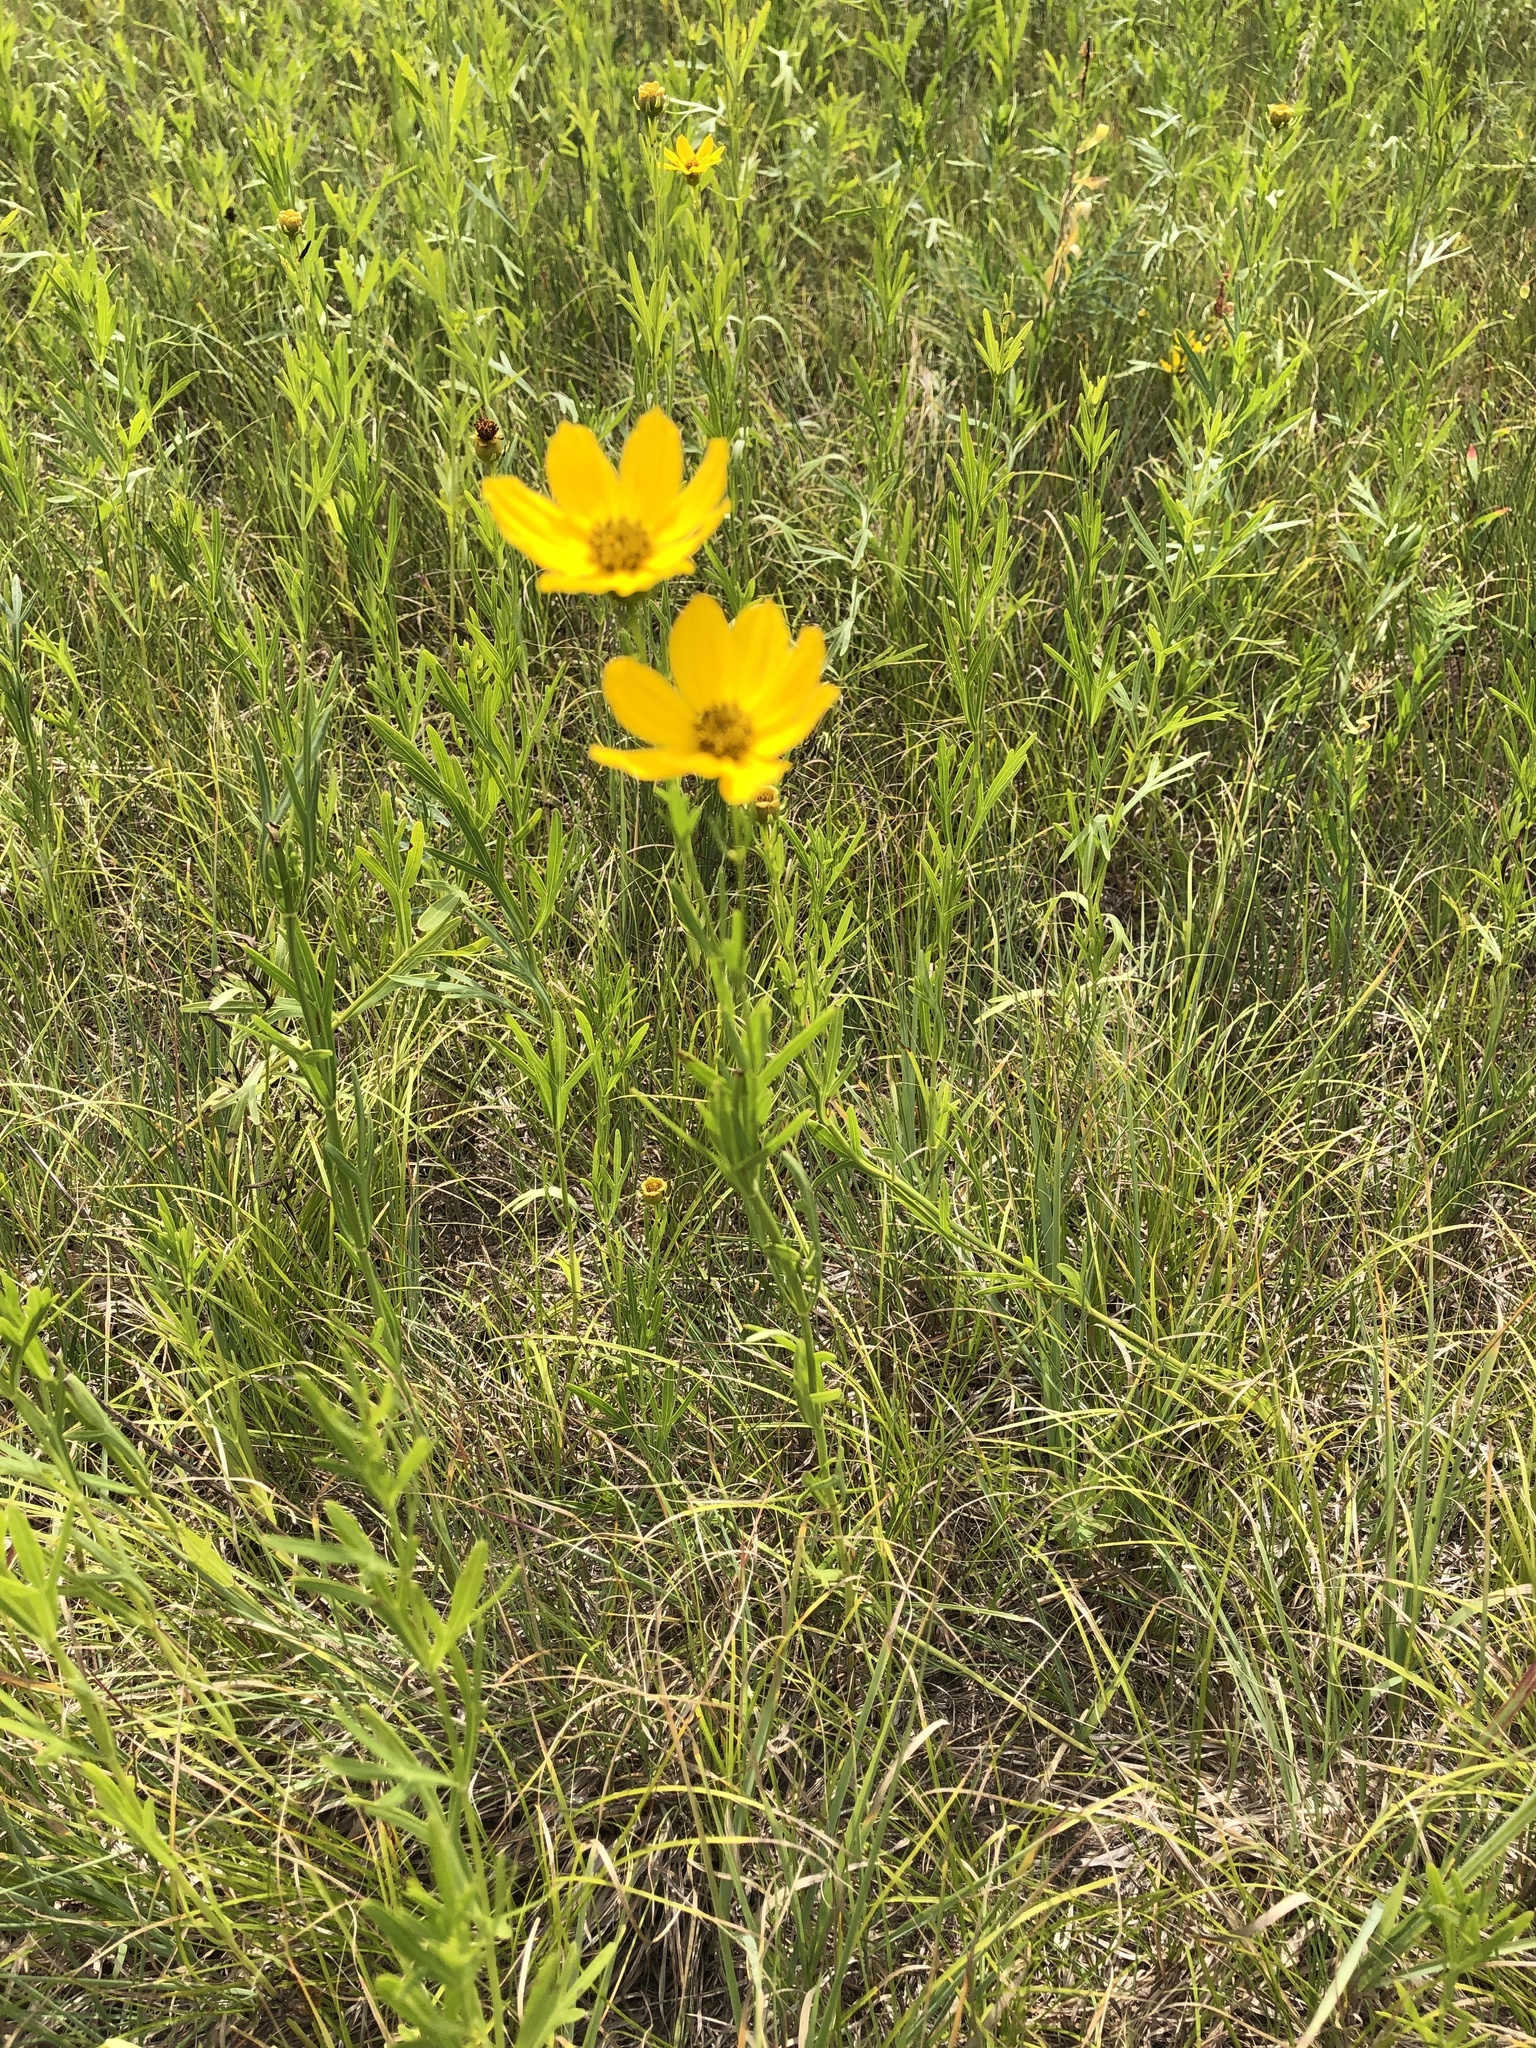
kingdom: Plantae
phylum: Tracheophyta
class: Magnoliopsida
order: Asterales
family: Asteraceae
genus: Coreopsis
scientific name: Coreopsis palmata
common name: Prairie coreopsis
